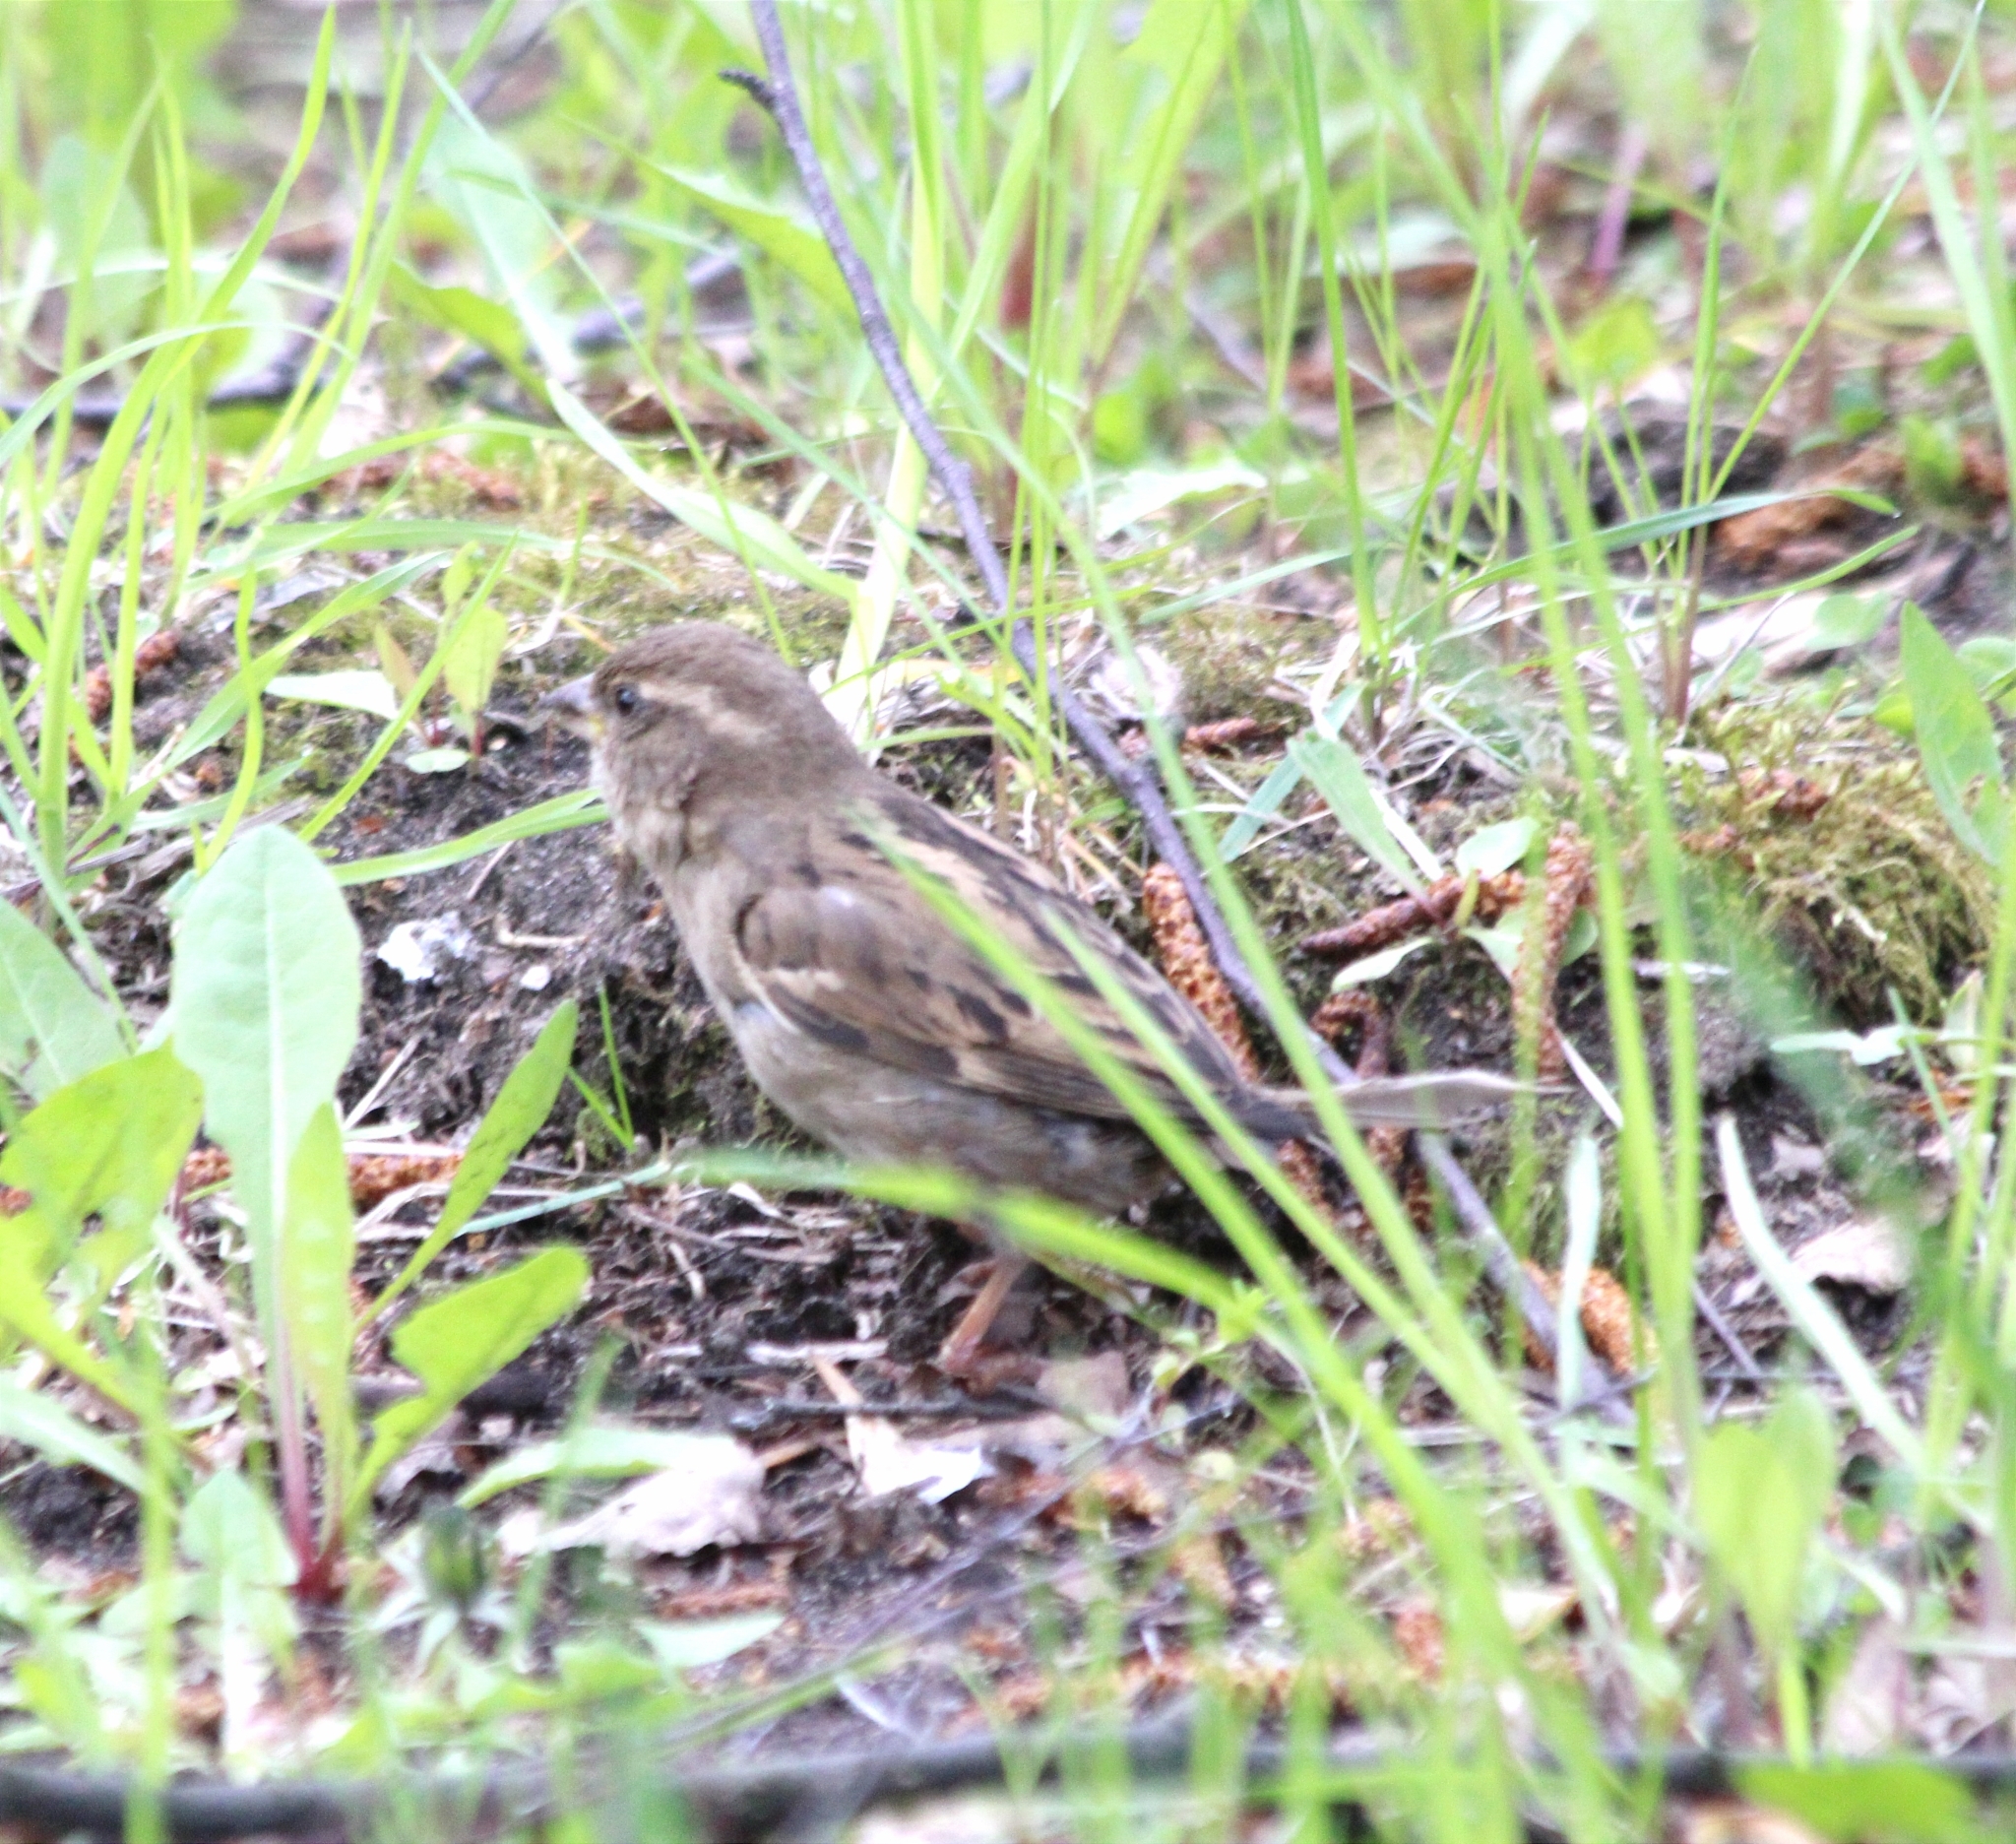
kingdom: Animalia
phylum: Chordata
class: Aves
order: Passeriformes
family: Passeridae
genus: Passer
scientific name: Passer domesticus
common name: House sparrow
